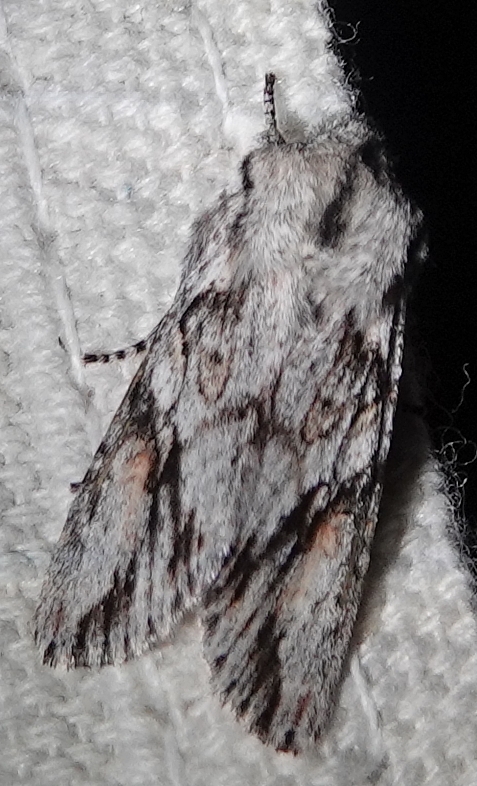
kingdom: Animalia
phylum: Arthropoda
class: Insecta
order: Lepidoptera
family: Noctuidae
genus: Egira
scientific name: Egira crucialis
